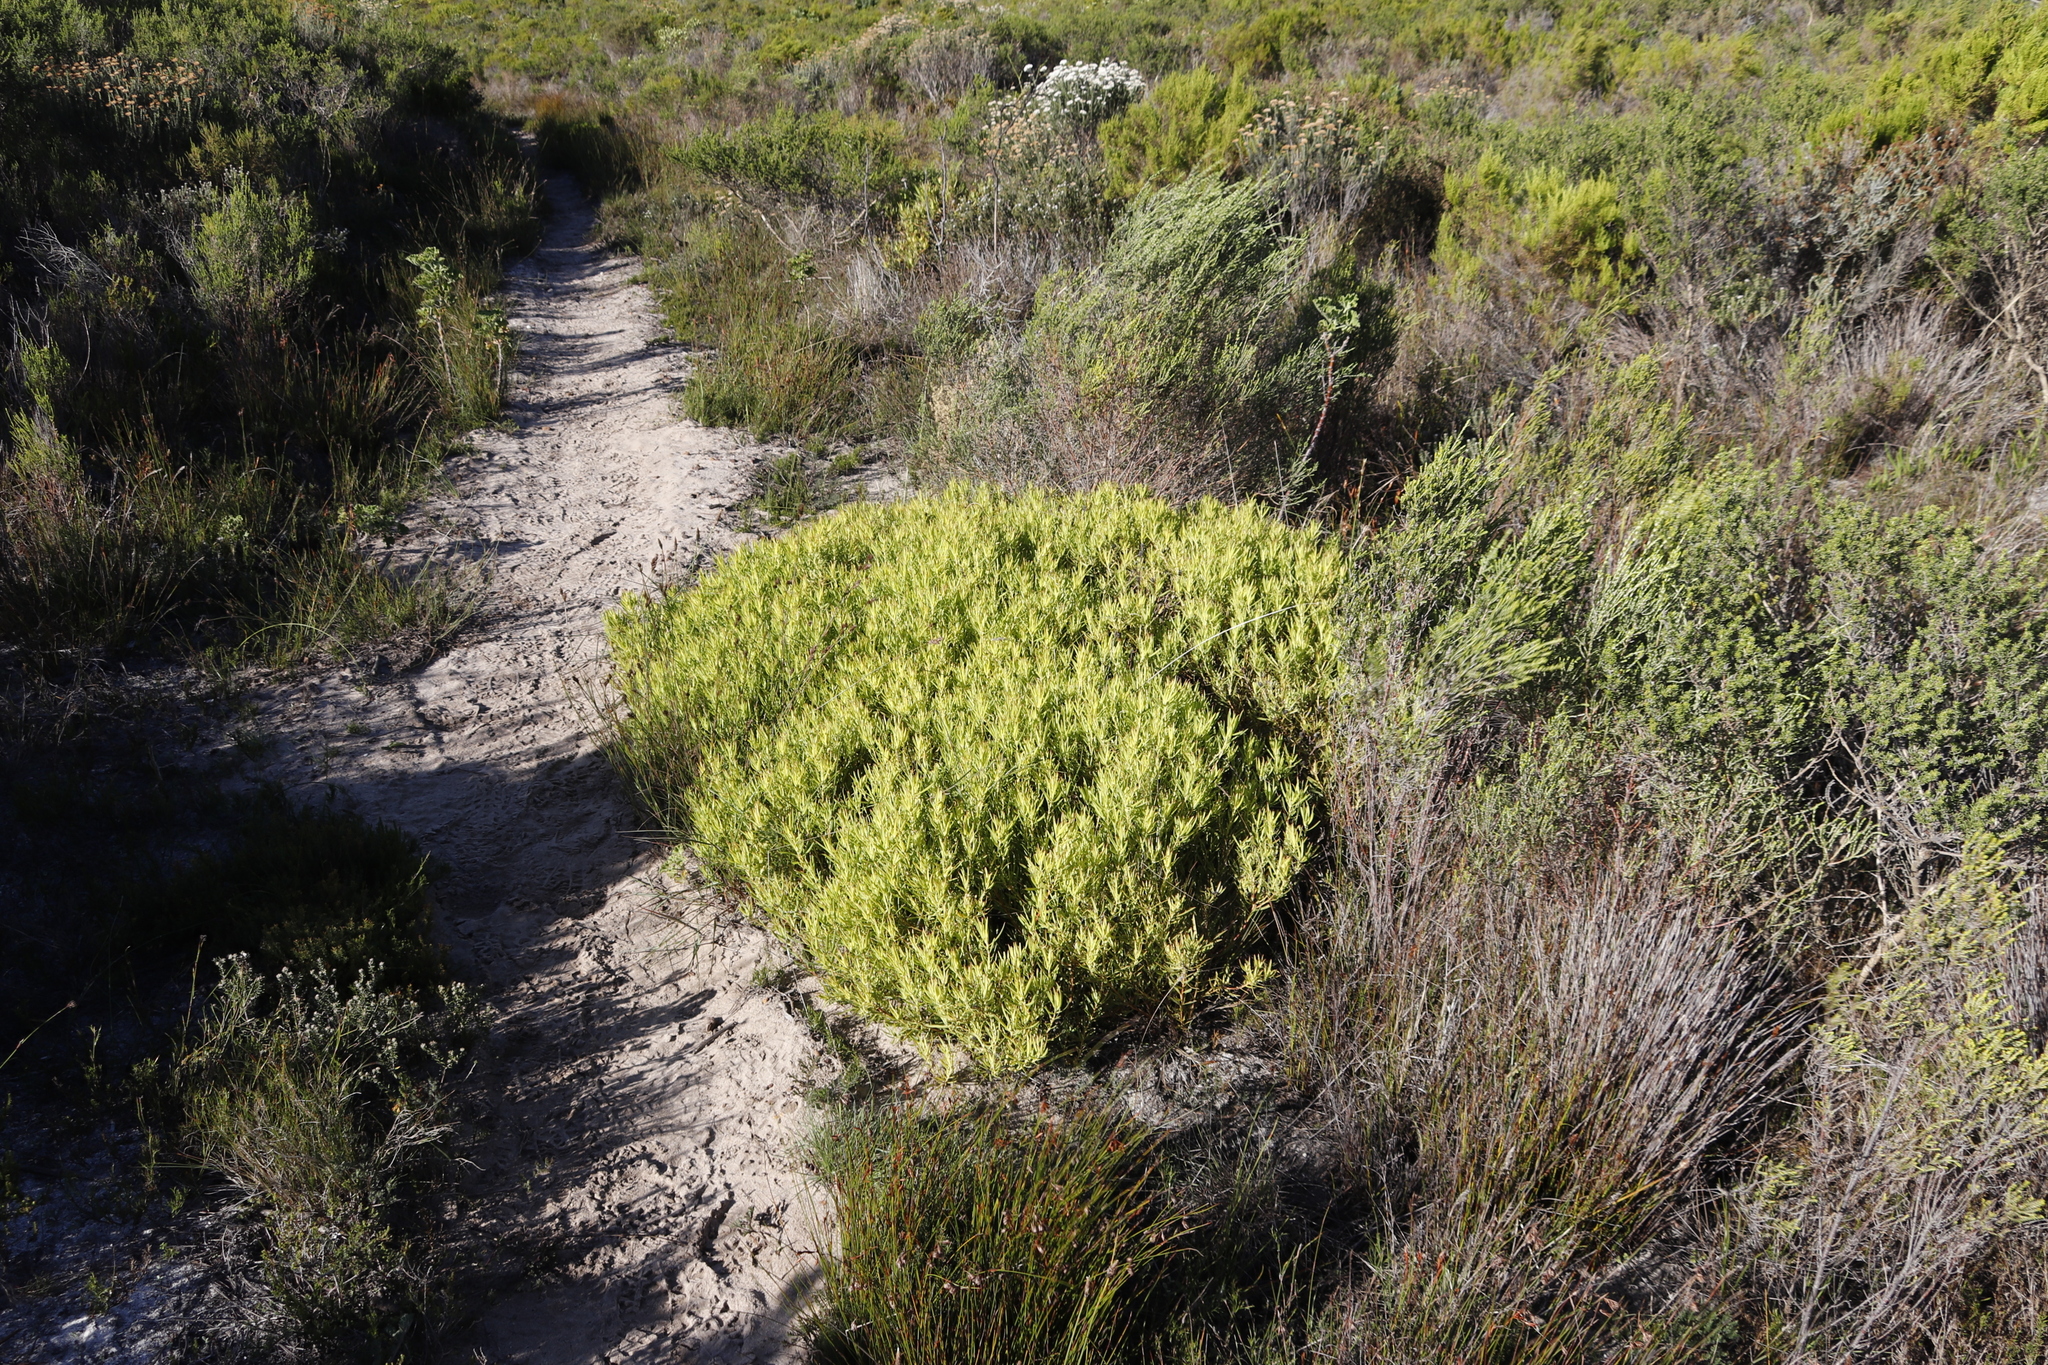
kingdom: Plantae
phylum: Tracheophyta
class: Magnoliopsida
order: Proteales
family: Proteaceae
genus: Leucadendron
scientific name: Leucadendron salignum
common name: Common sunshine conebush
